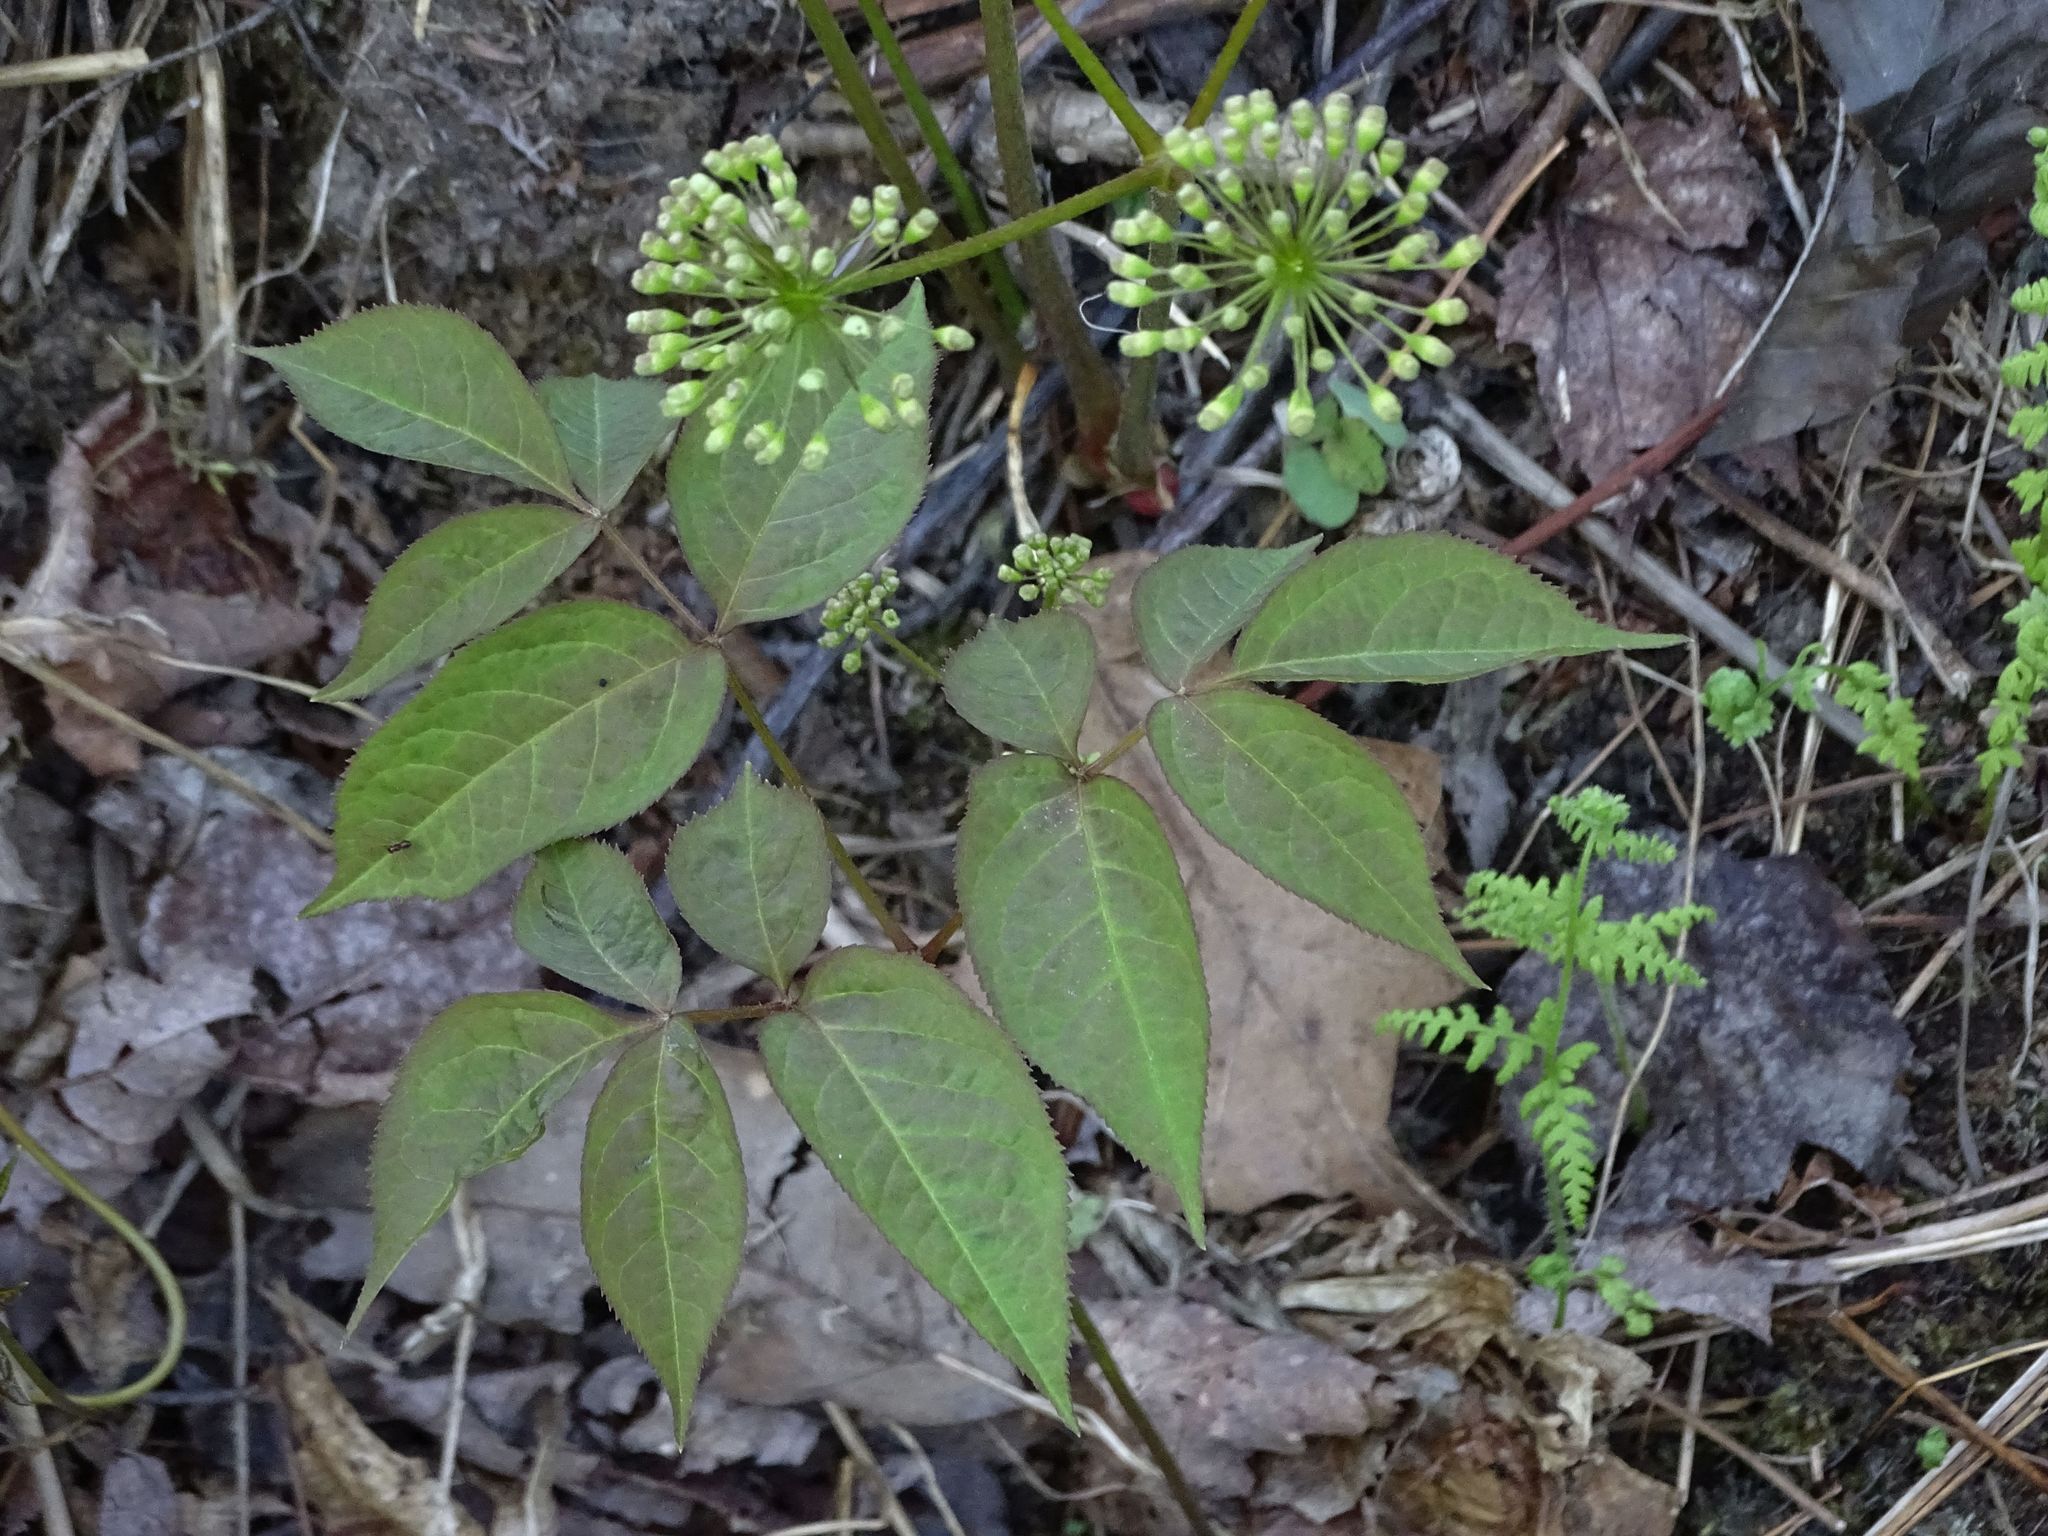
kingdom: Plantae
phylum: Tracheophyta
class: Magnoliopsida
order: Apiales
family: Araliaceae
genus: Aralia
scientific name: Aralia nudicaulis
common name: Wild sarsaparilla
